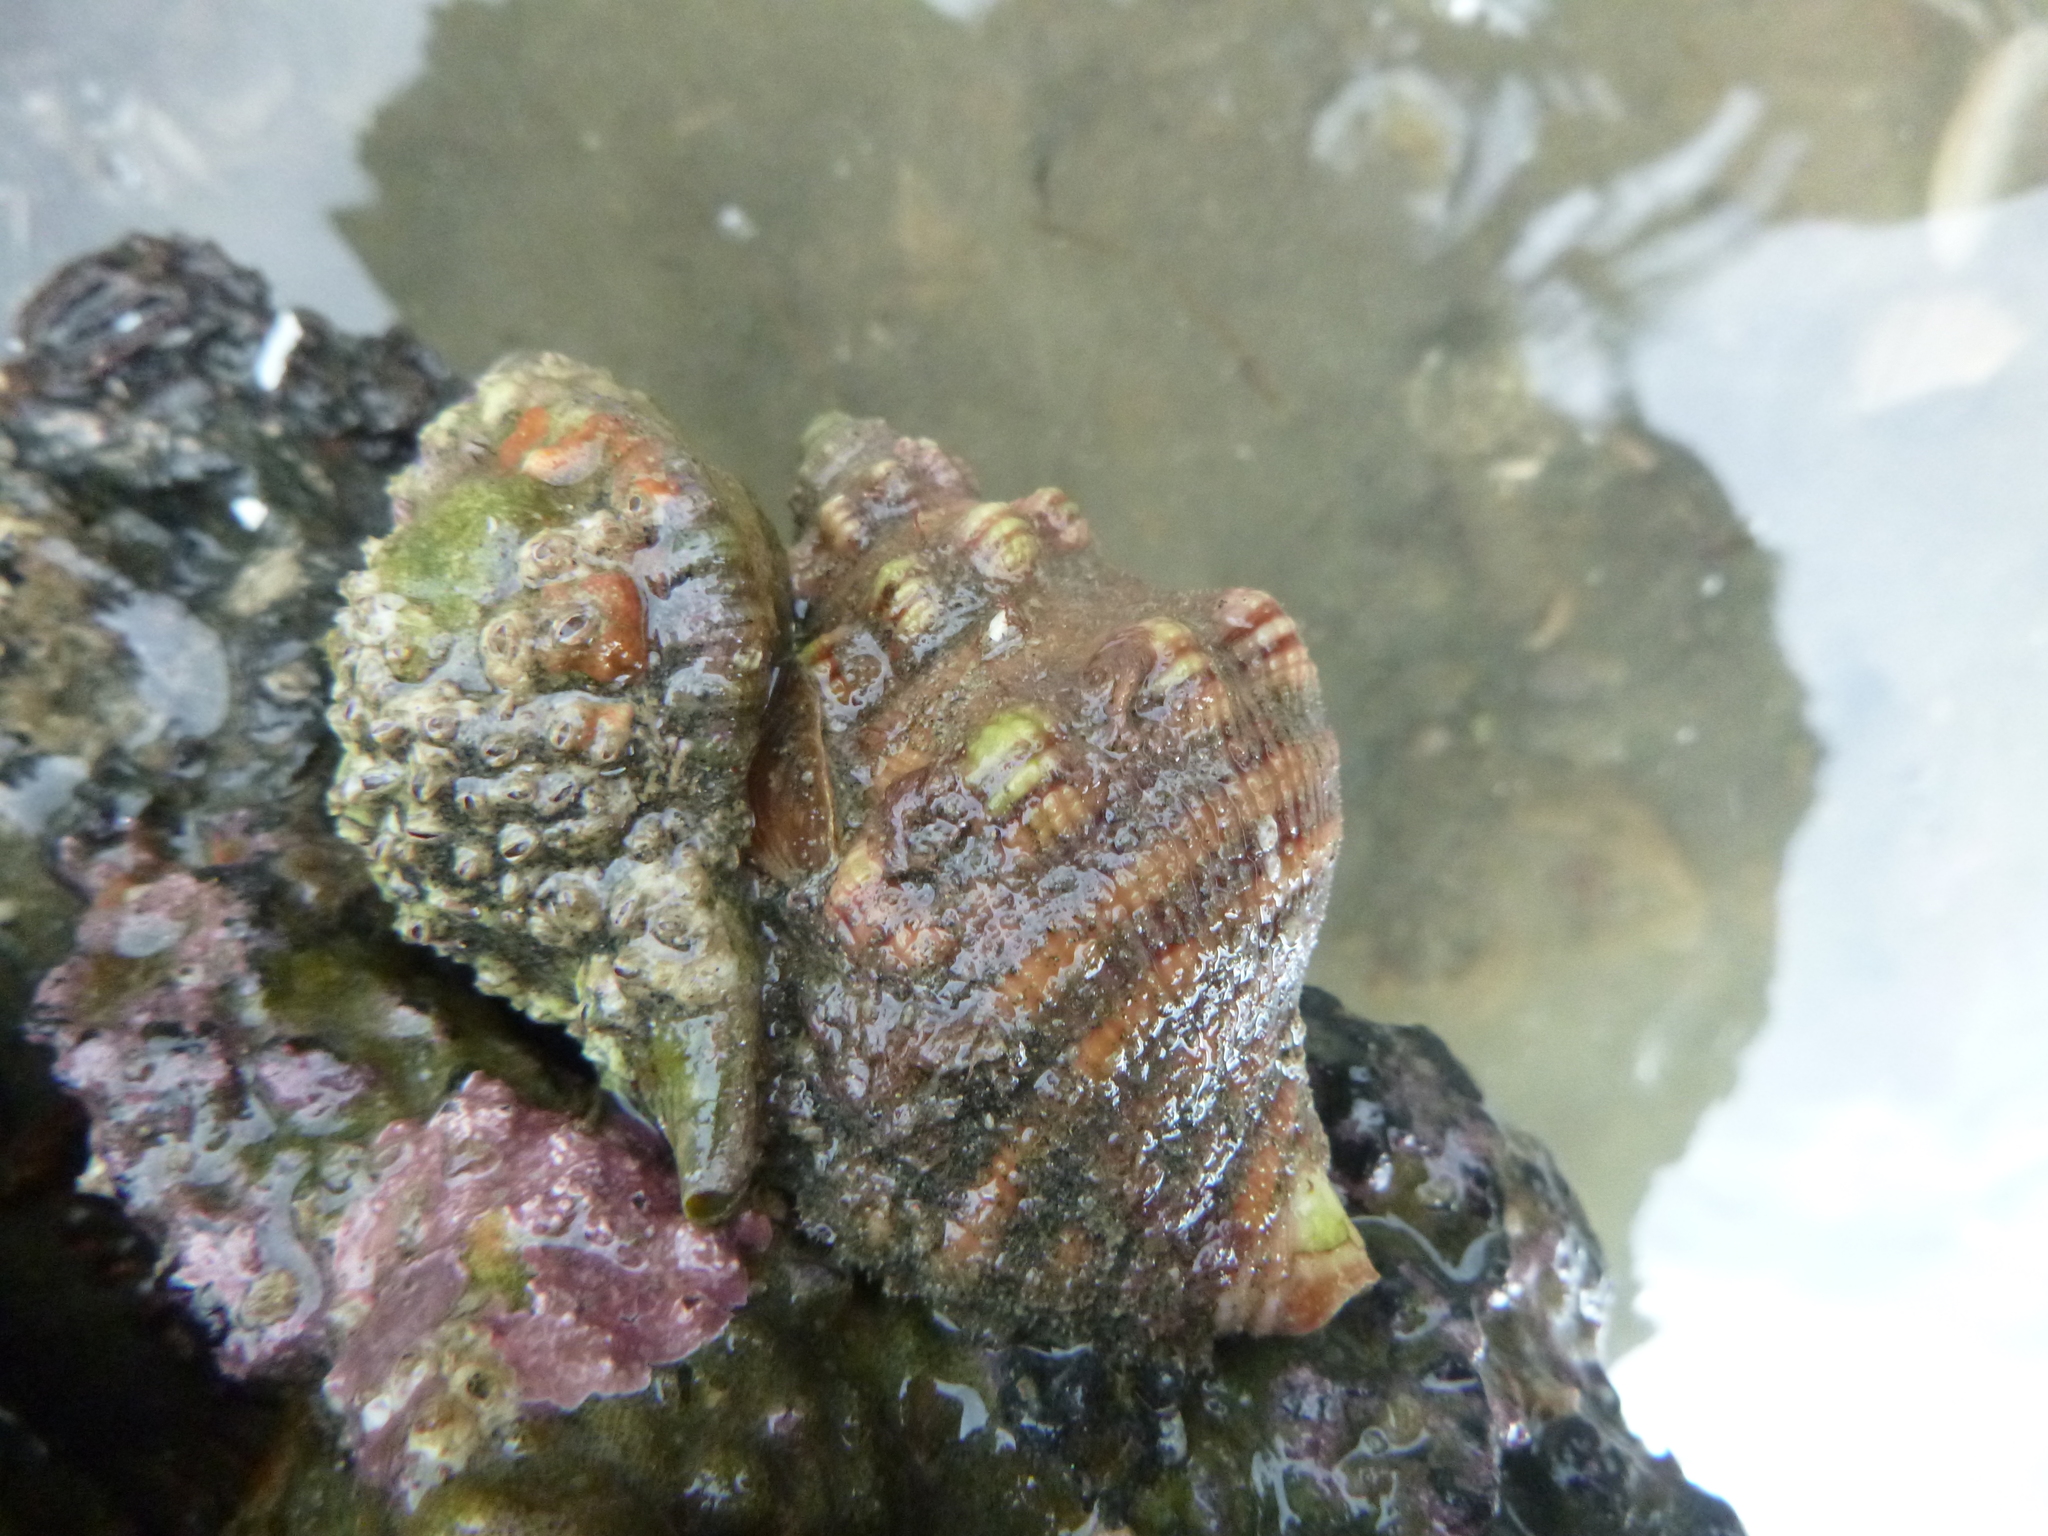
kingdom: Animalia
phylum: Mollusca
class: Gastropoda
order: Littorinimorpha
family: Cymatiidae
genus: Cabestana
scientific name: Cabestana spengleri
